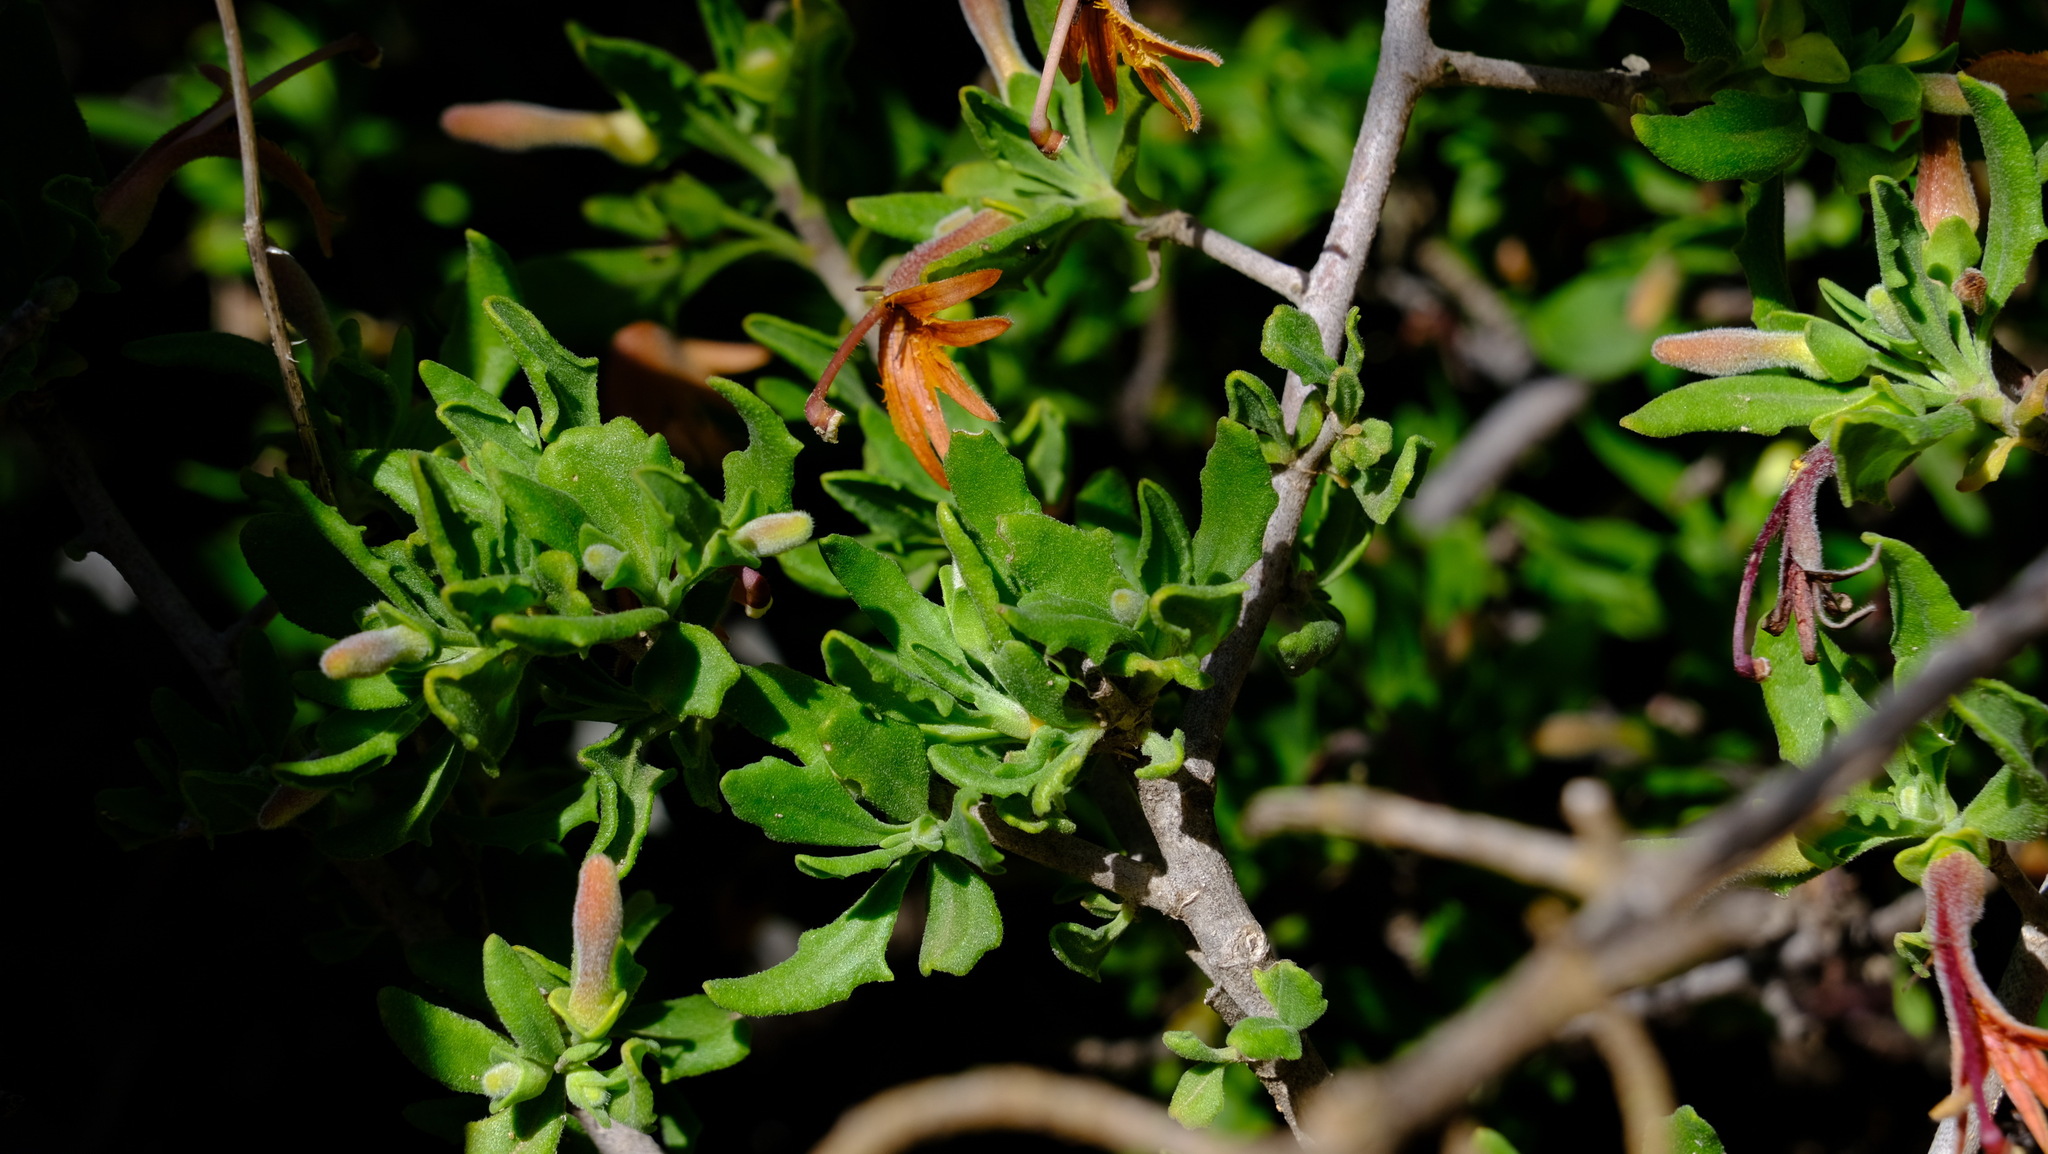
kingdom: Plantae
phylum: Tracheophyta
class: Magnoliopsida
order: Asterales
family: Goodeniaceae
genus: Scaevola
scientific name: Scaevola tomentosa
